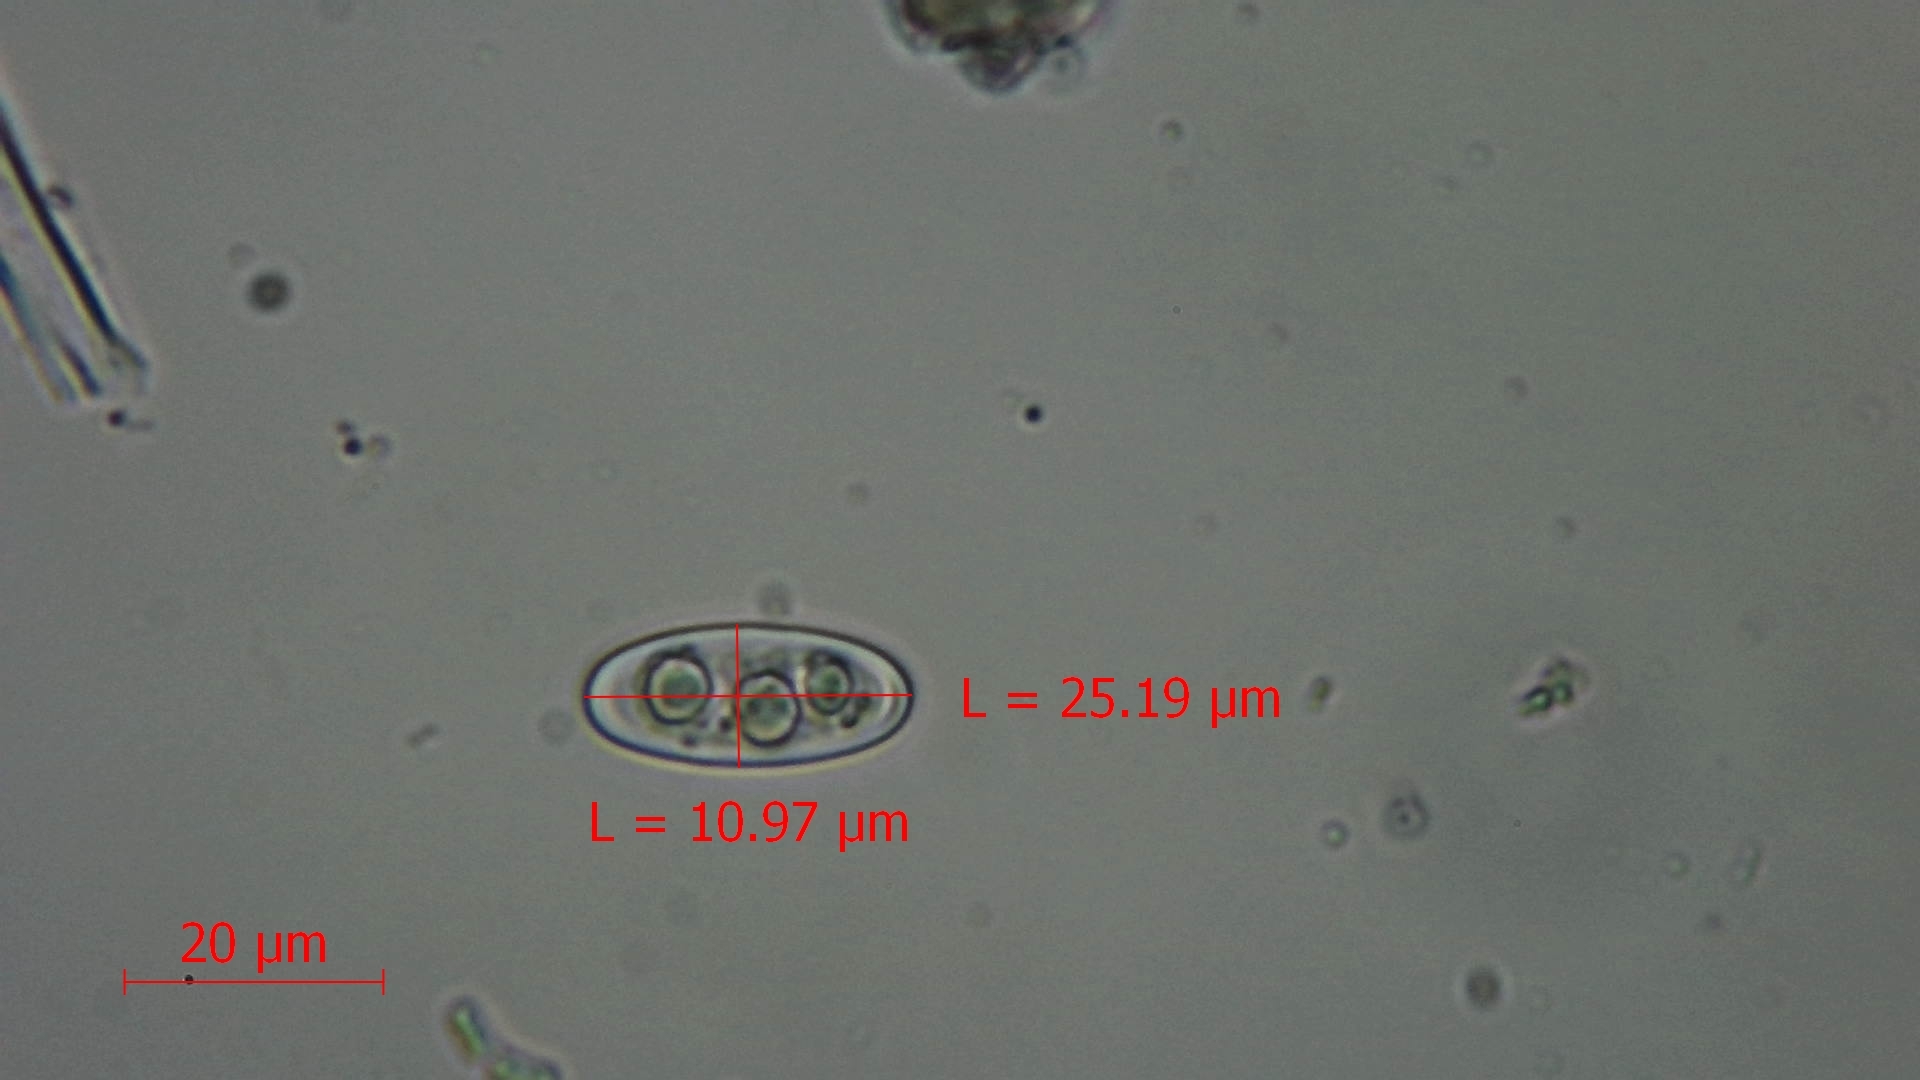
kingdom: Fungi
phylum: Ascomycota
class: Pezizomycetes
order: Pezizales
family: Sarcoscyphaceae
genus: Sarcoscypha
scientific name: Sarcoscypha austriaca
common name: Scarlet elfcup
